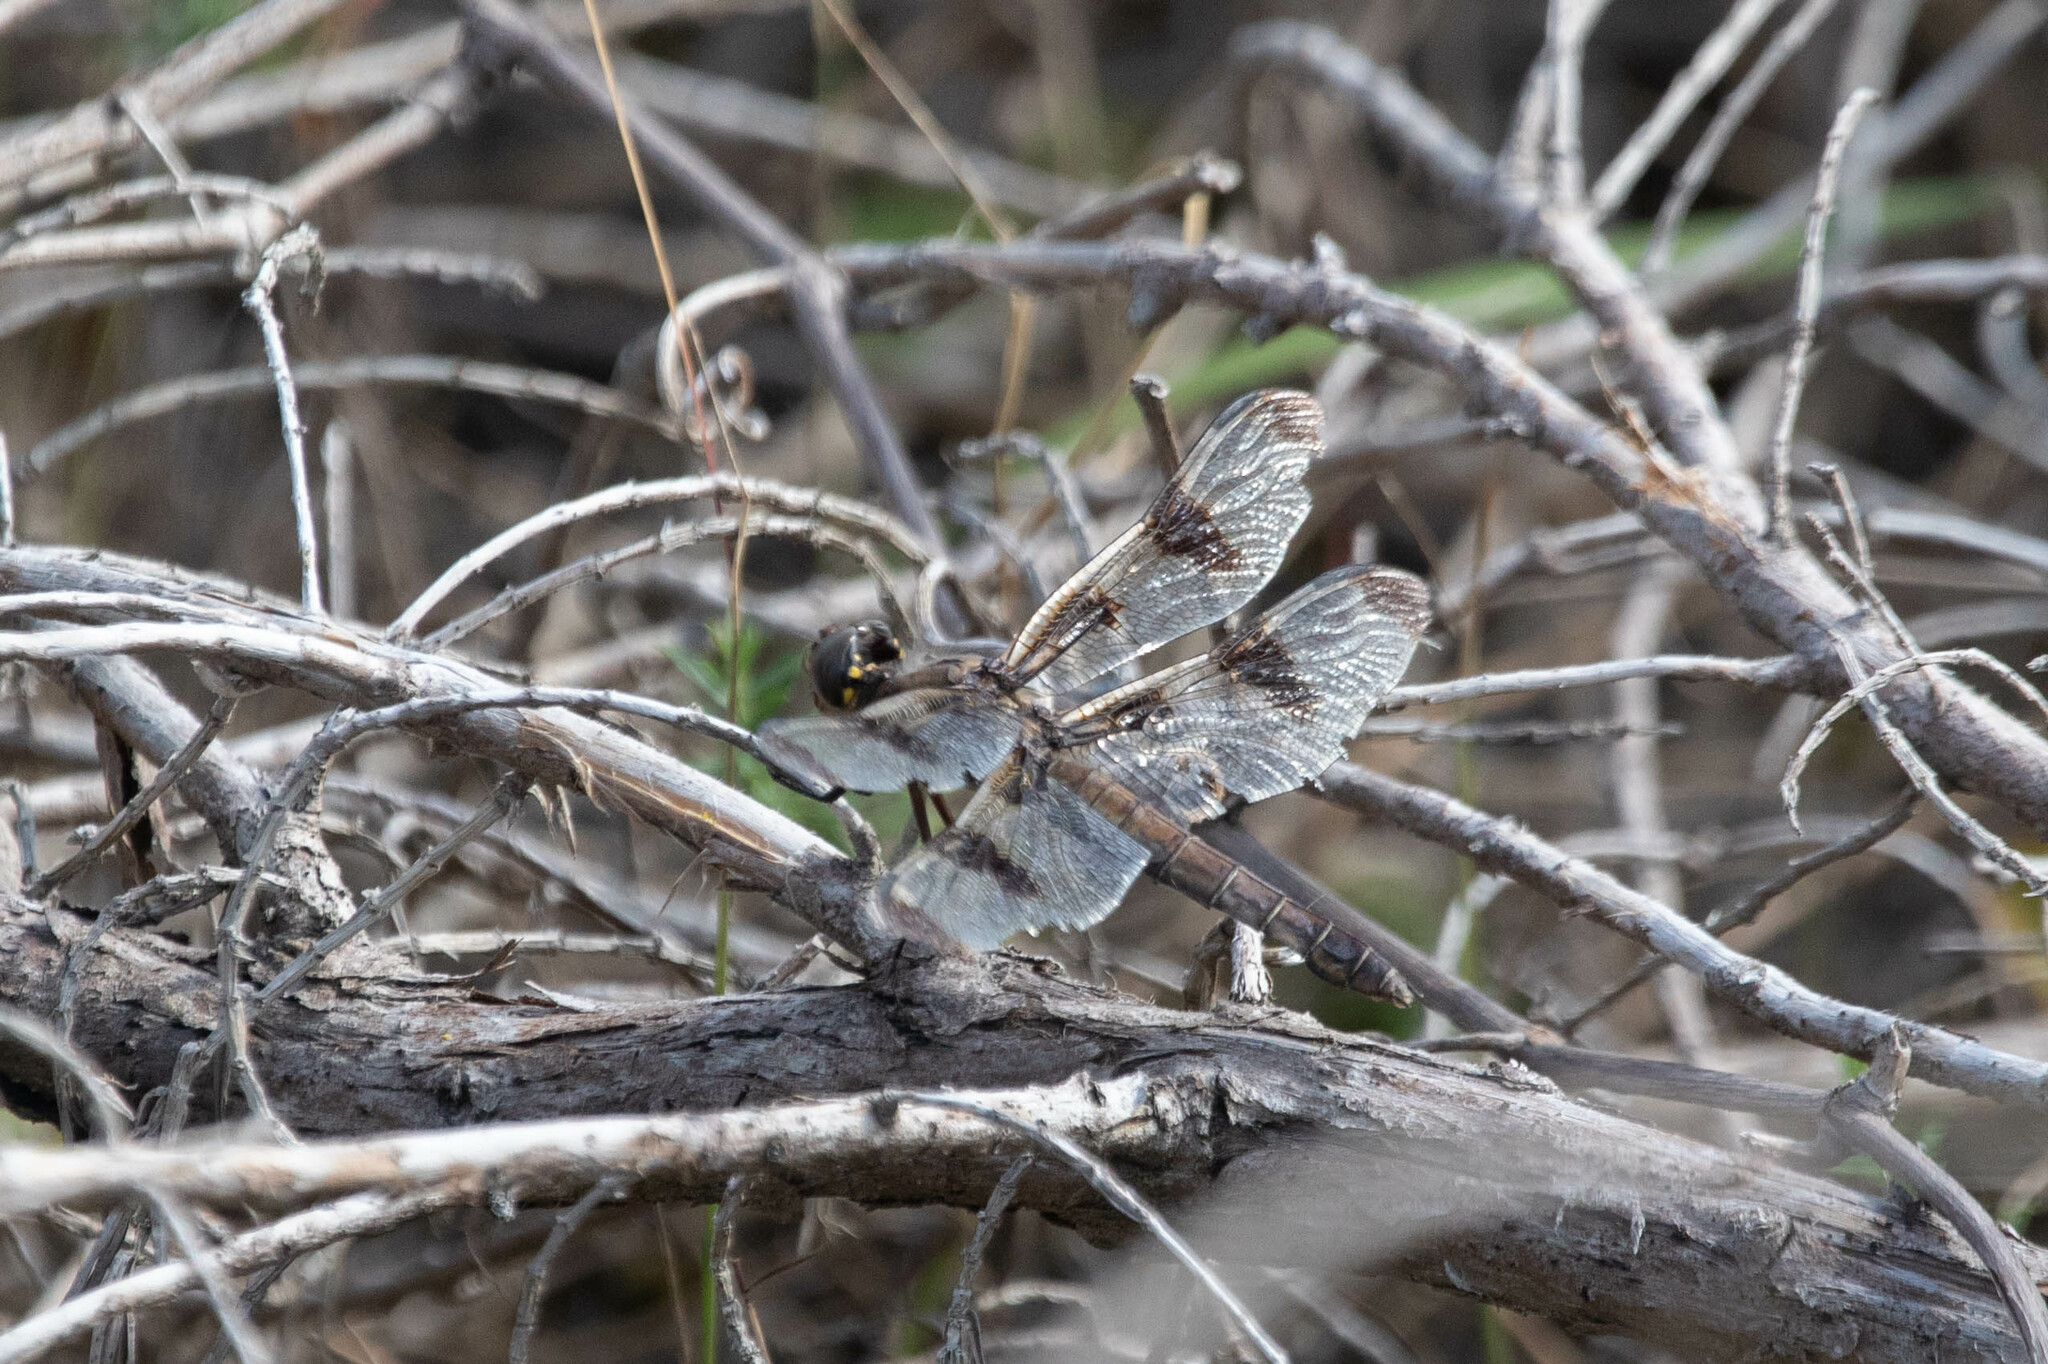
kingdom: Animalia
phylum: Arthropoda
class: Insecta
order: Odonata
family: Libellulidae
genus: Libellula
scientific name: Libellula pulchella
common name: Twelve-spotted skimmer
